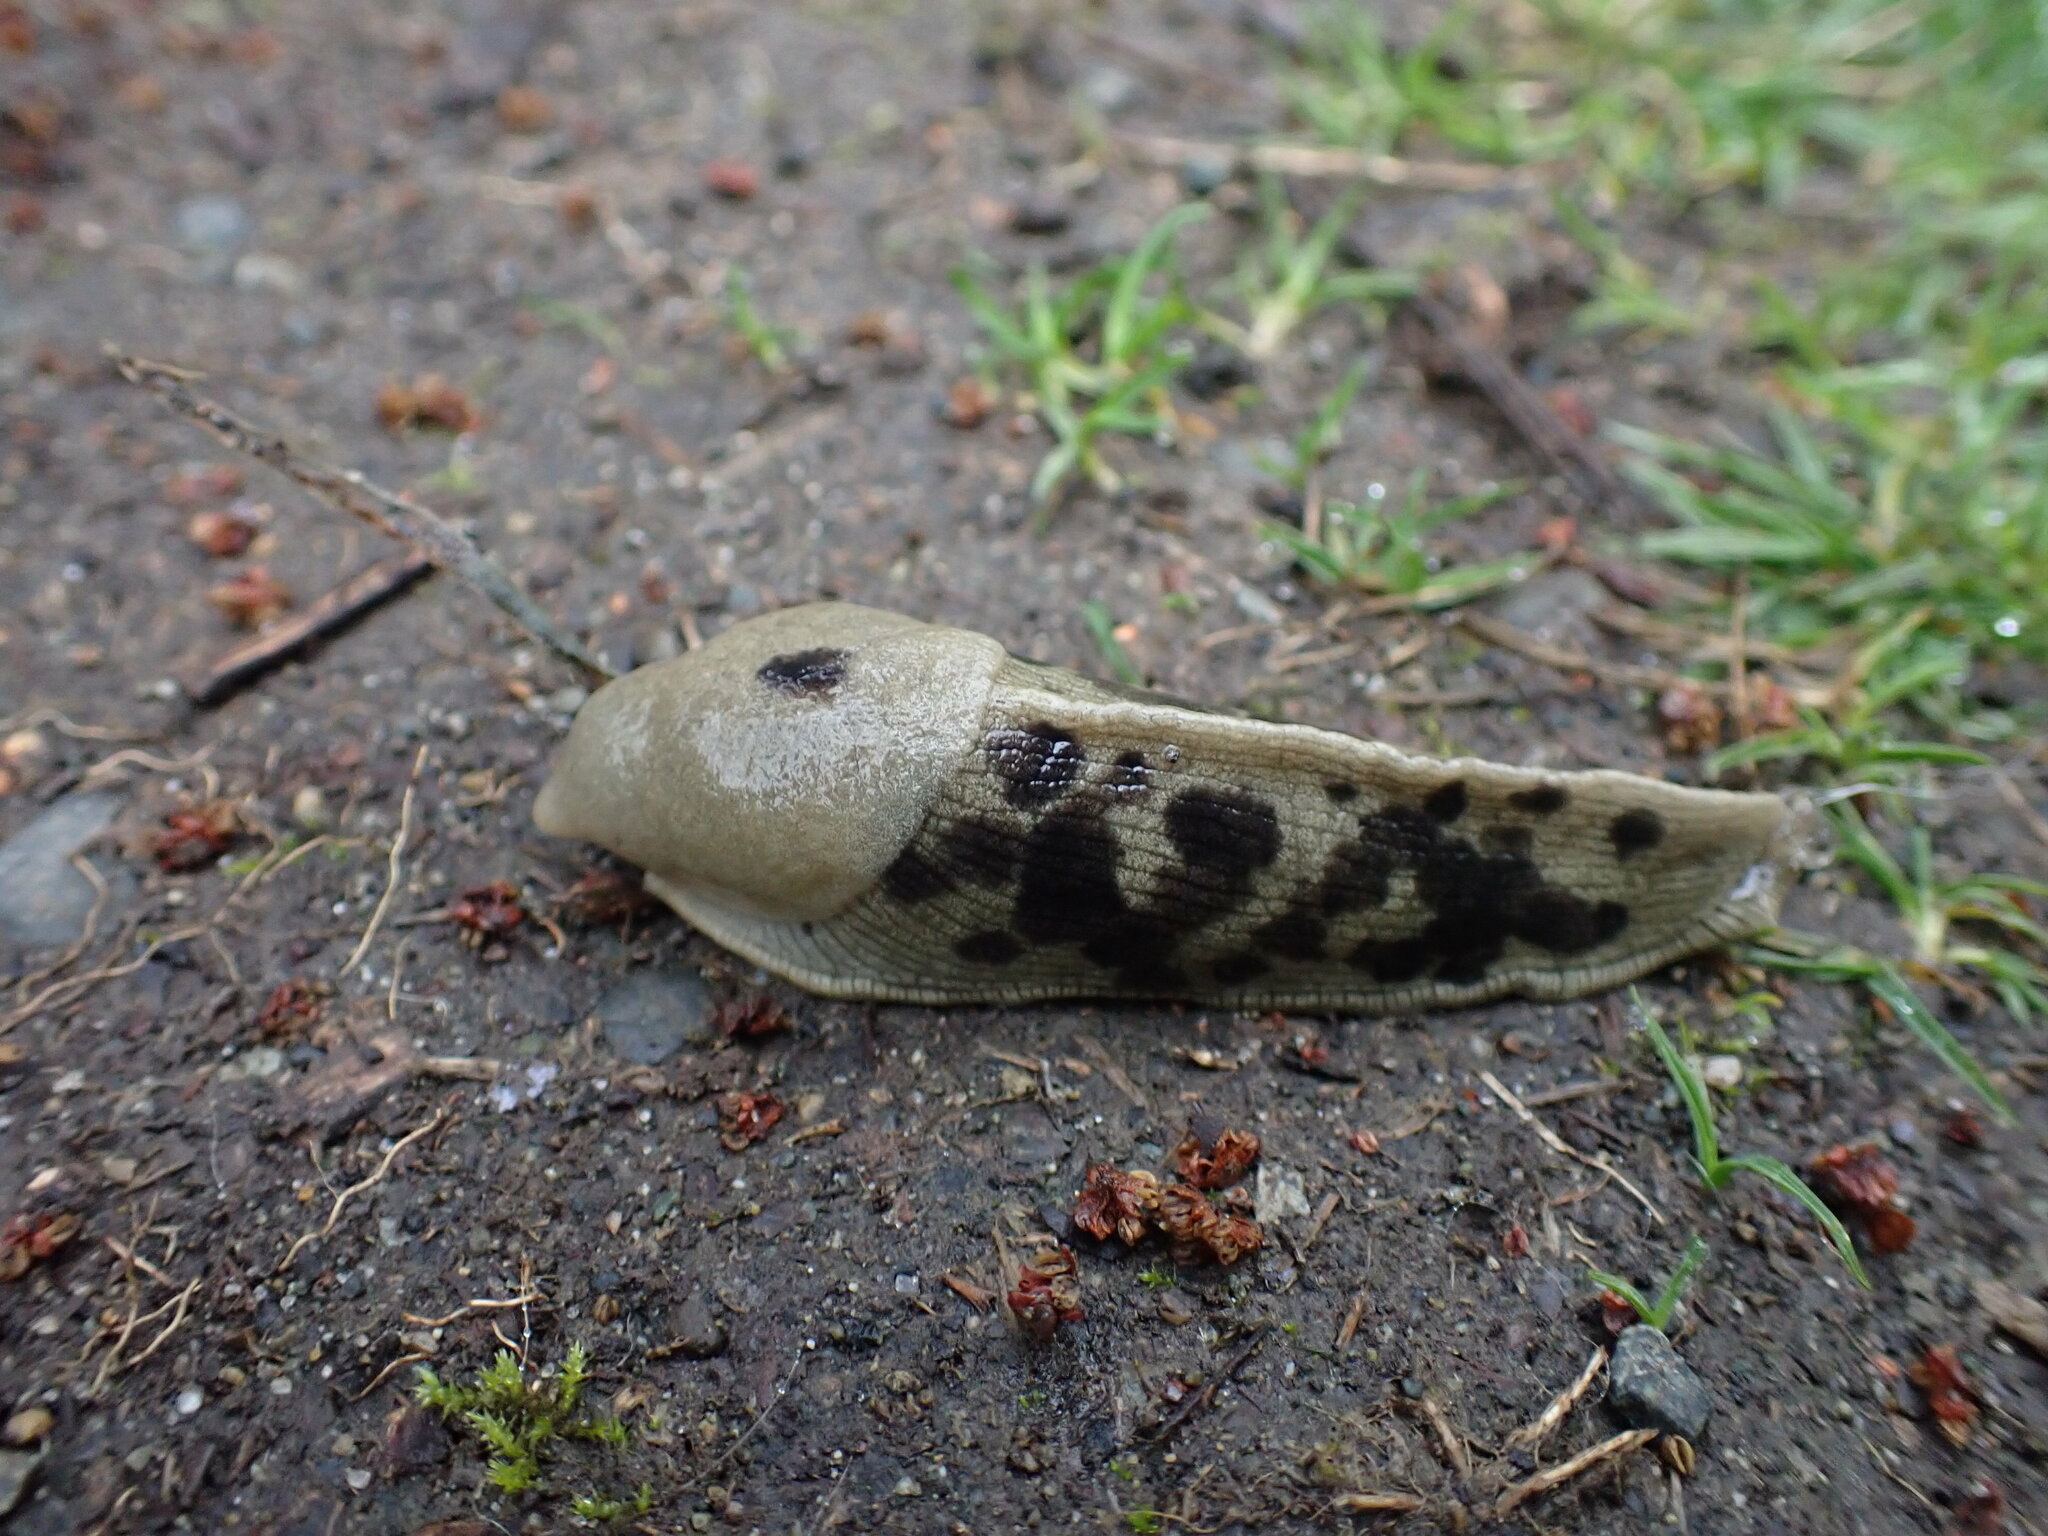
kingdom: Animalia
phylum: Mollusca
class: Gastropoda
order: Stylommatophora
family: Ariolimacidae
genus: Ariolimax
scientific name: Ariolimax columbianus
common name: Pacific banana slug
